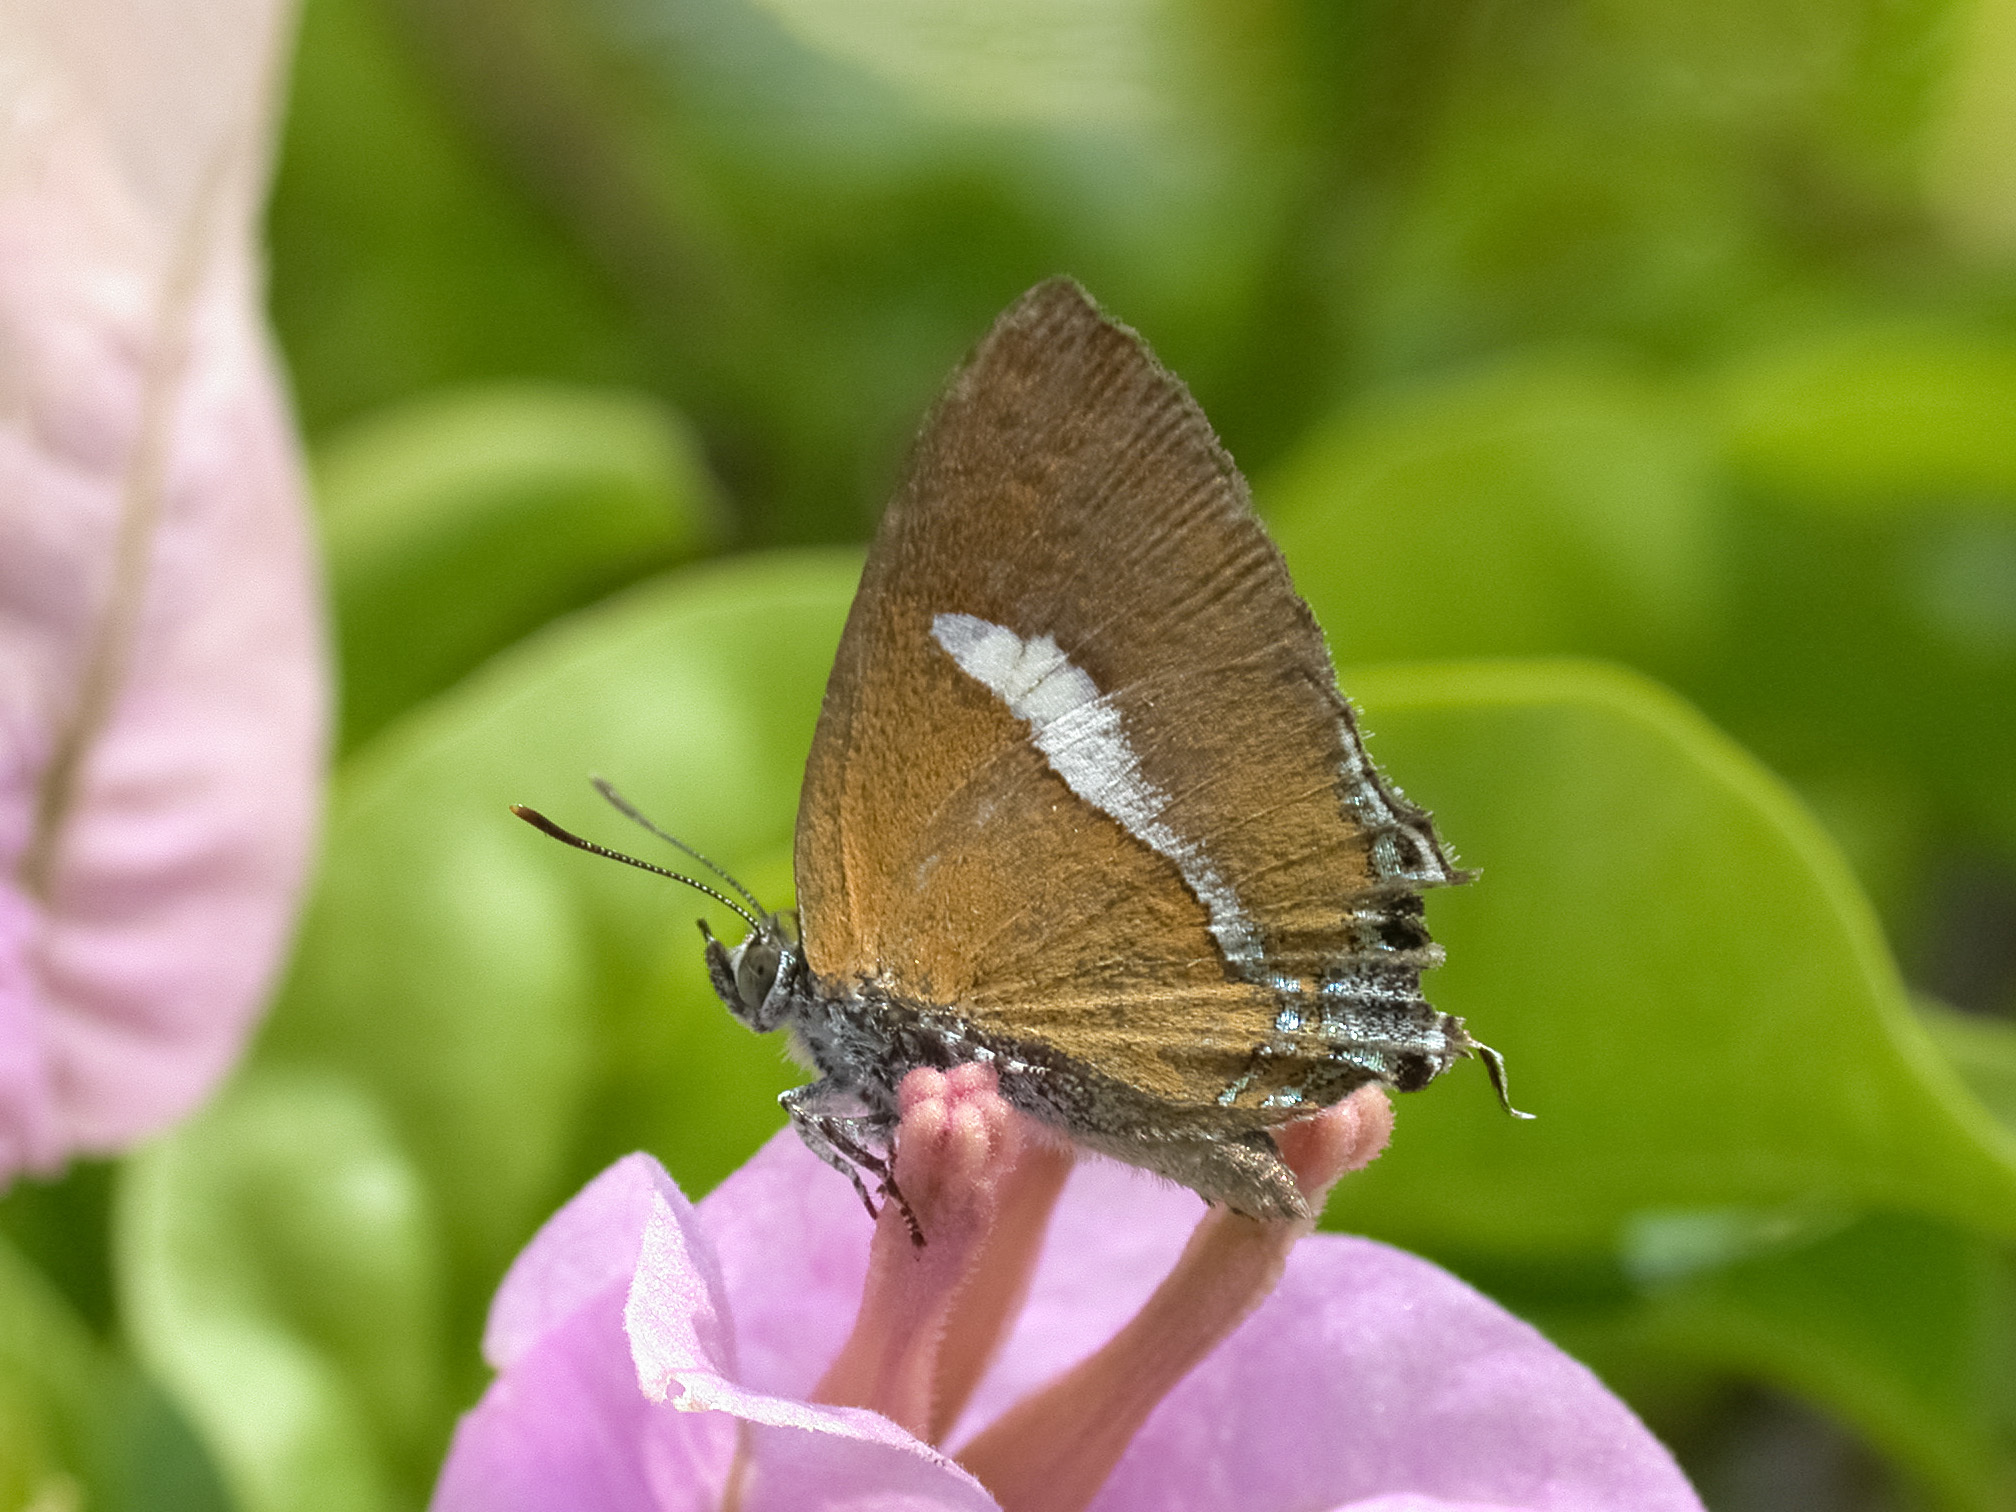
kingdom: Animalia
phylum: Arthropoda
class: Insecta
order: Lepidoptera
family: Lycaenidae
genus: Horaga
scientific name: Horaga syrinx
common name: Ambon onyx
